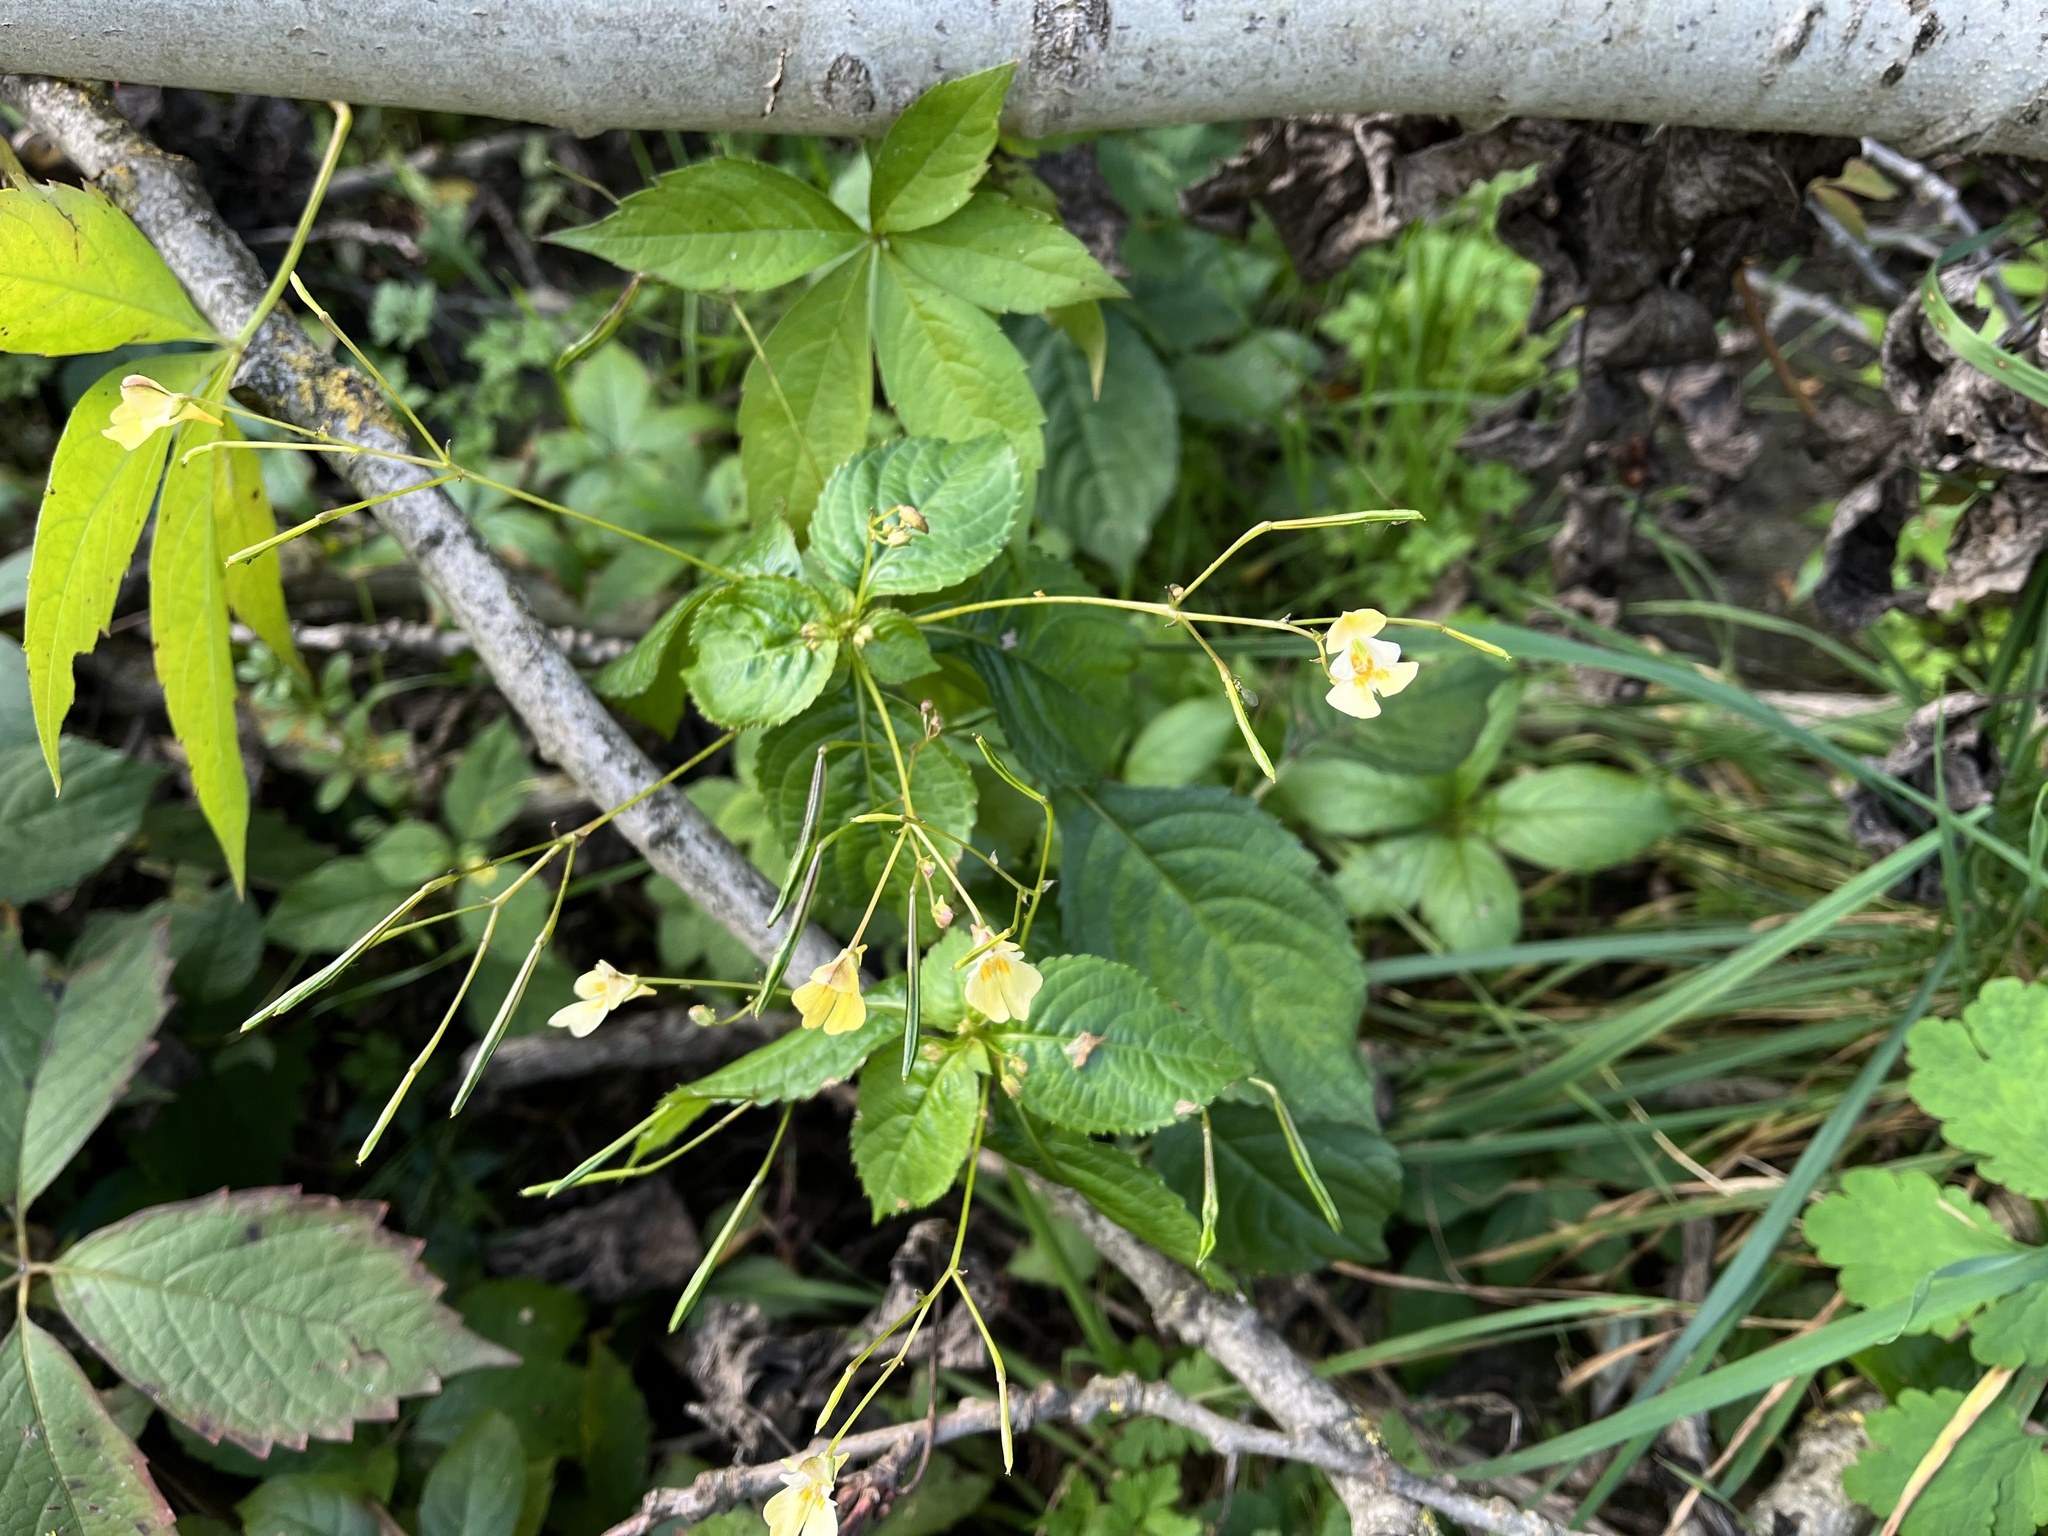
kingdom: Plantae
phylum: Tracheophyta
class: Magnoliopsida
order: Ericales
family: Balsaminaceae
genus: Impatiens
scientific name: Impatiens parviflora
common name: Small balsam
